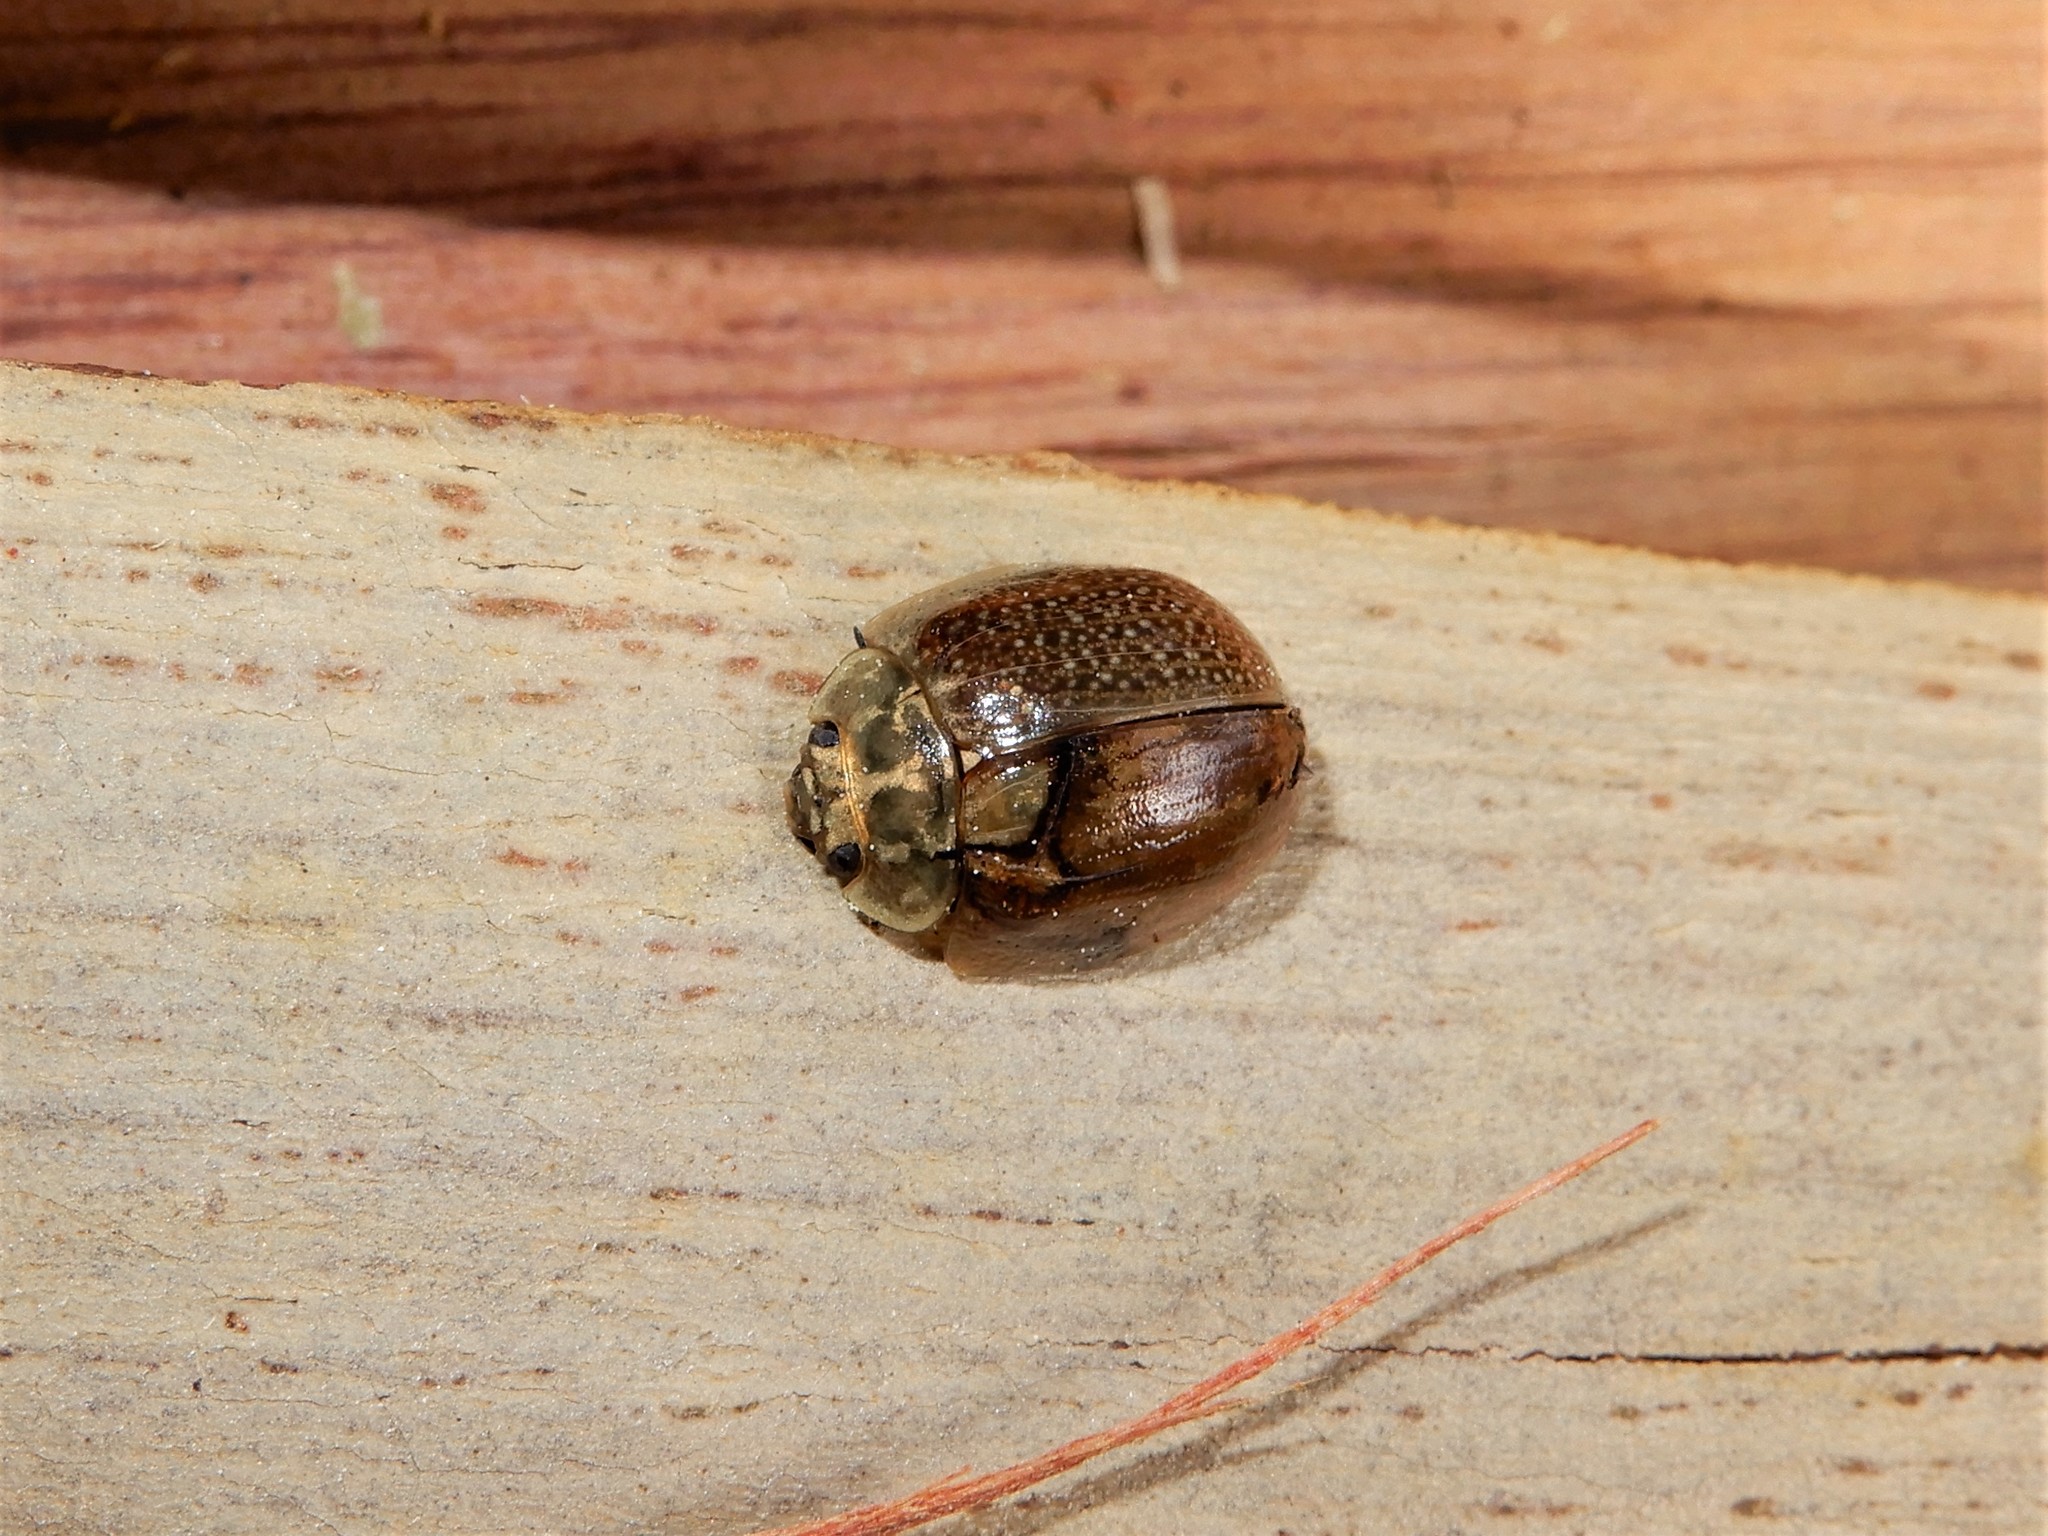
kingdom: Animalia
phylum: Arthropoda
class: Insecta
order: Coleoptera
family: Chrysomelidae
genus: Paropsisterna
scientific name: Paropsisterna cloelia
